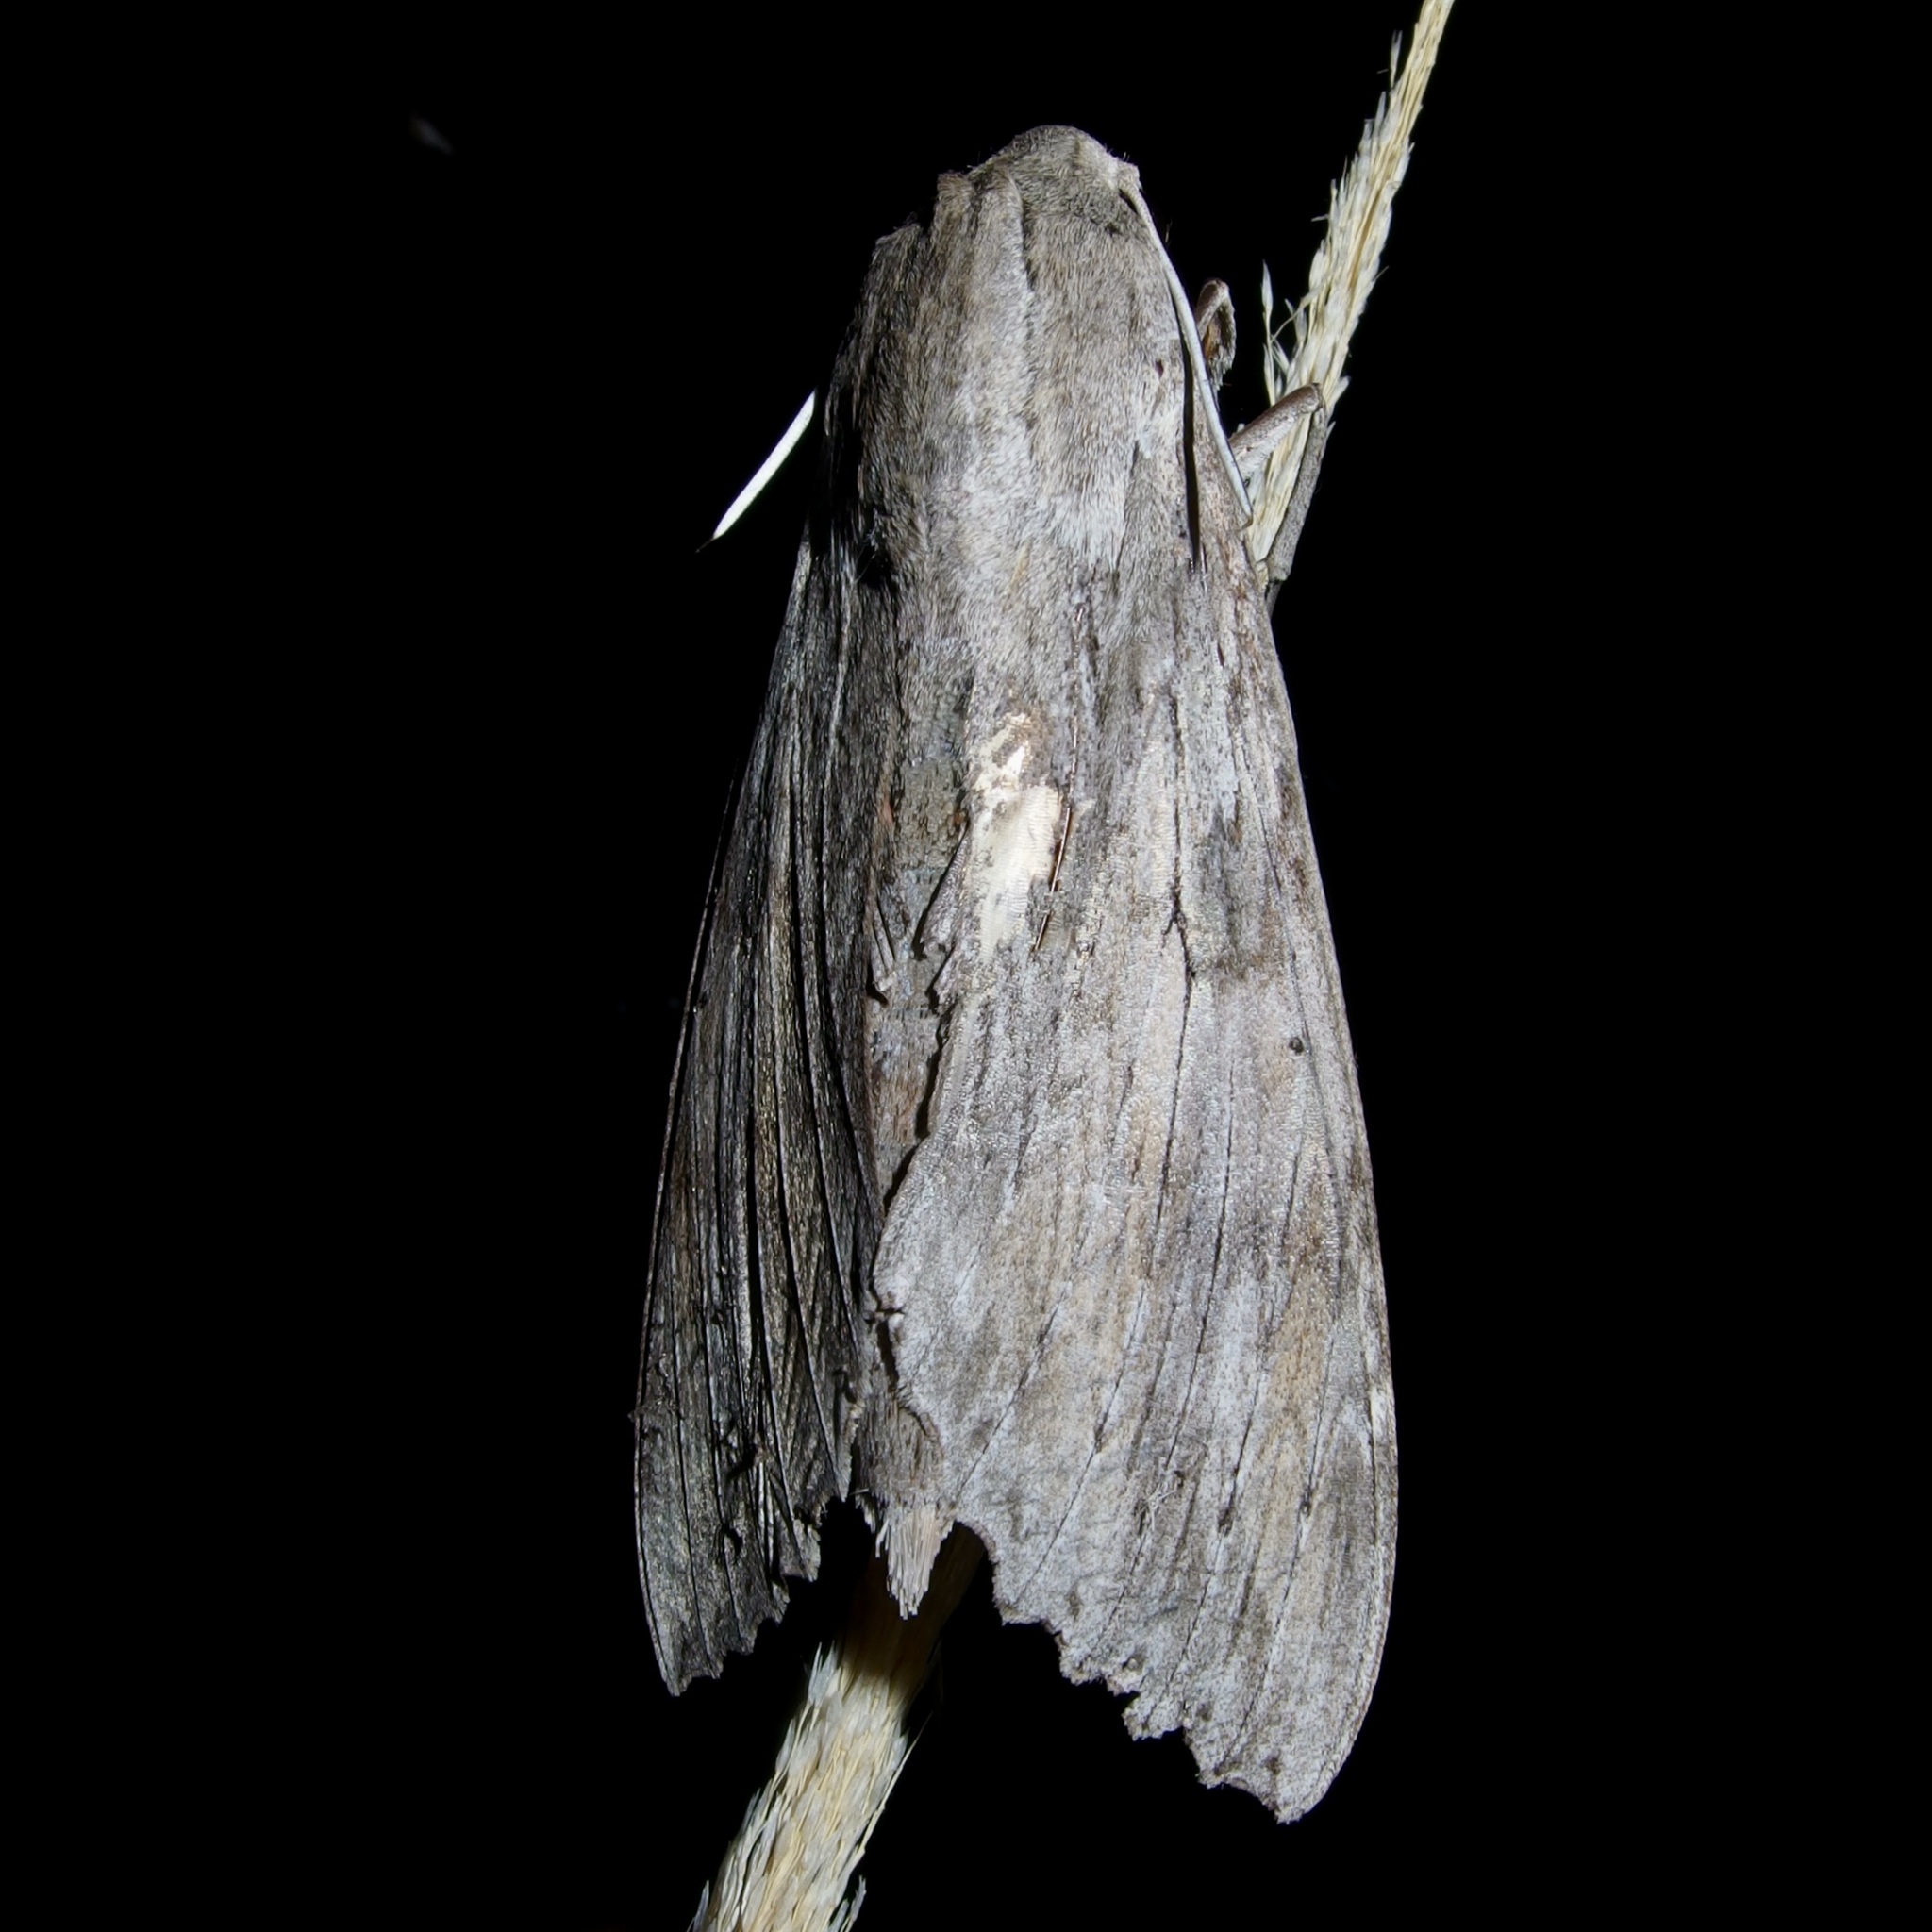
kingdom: Animalia
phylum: Arthropoda
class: Insecta
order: Lepidoptera
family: Sphingidae
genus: Erinnyis
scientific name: Erinnyis ello
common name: Ello sphinx
